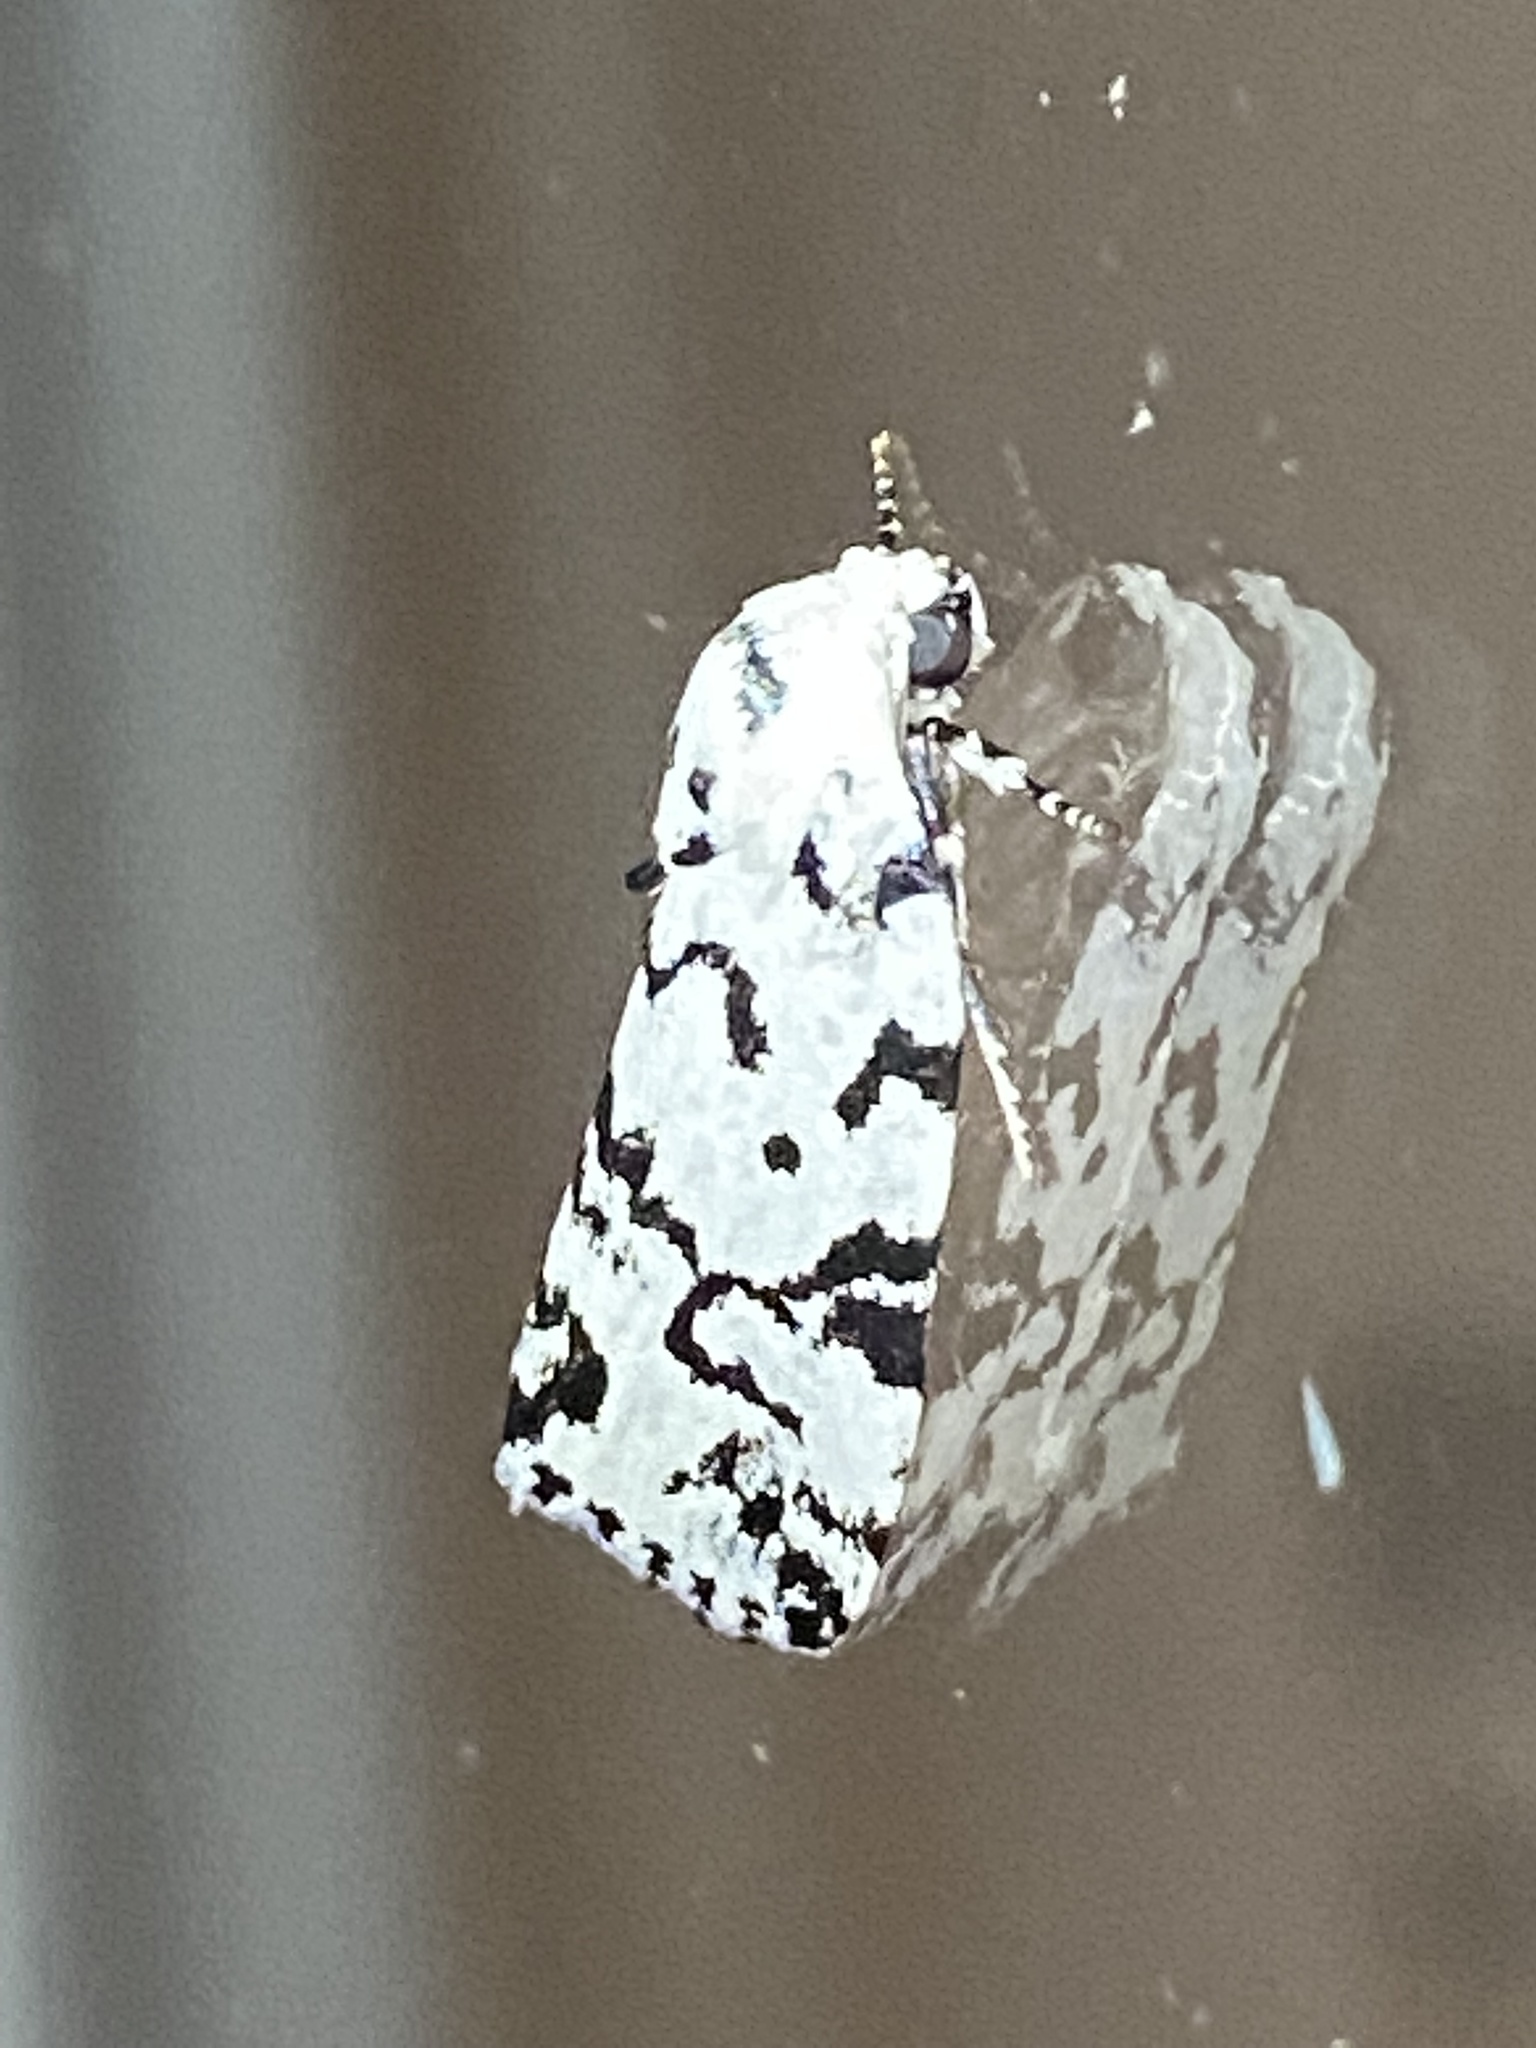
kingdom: Animalia
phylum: Arthropoda
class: Insecta
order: Lepidoptera
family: Noctuidae
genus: Polygrammate
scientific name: Polygrammate hebraeicum
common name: Hebrew moth
